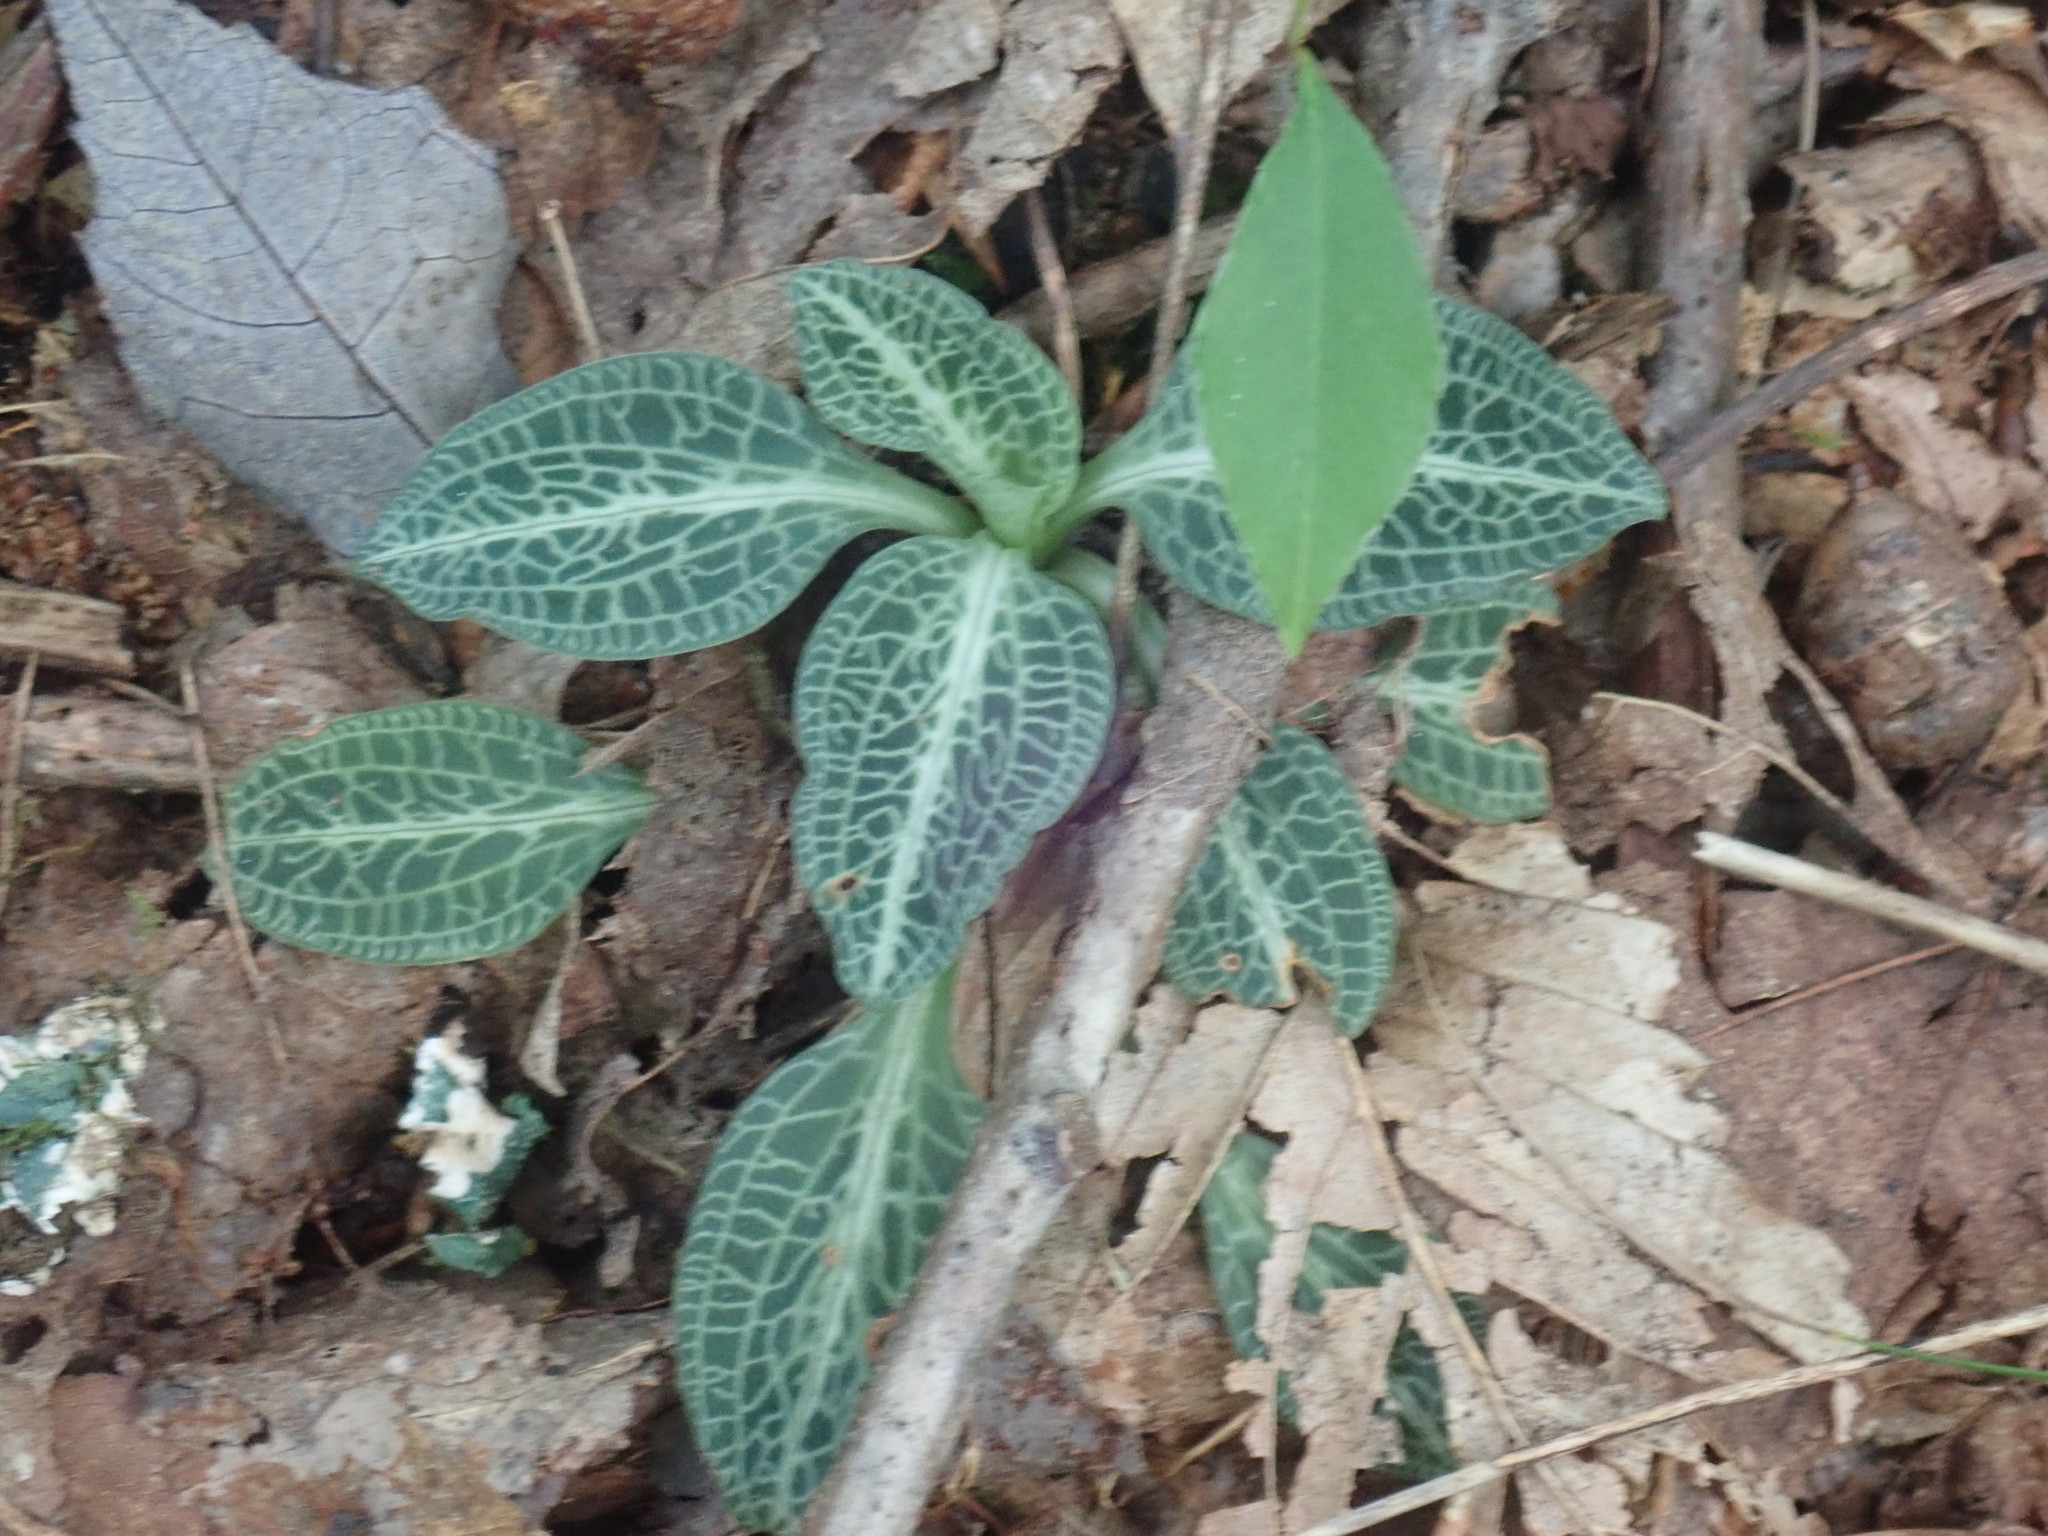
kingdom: Plantae
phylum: Tracheophyta
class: Liliopsida
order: Asparagales
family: Orchidaceae
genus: Goodyera
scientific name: Goodyera pubescens
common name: Downy rattlesnake-plantain
